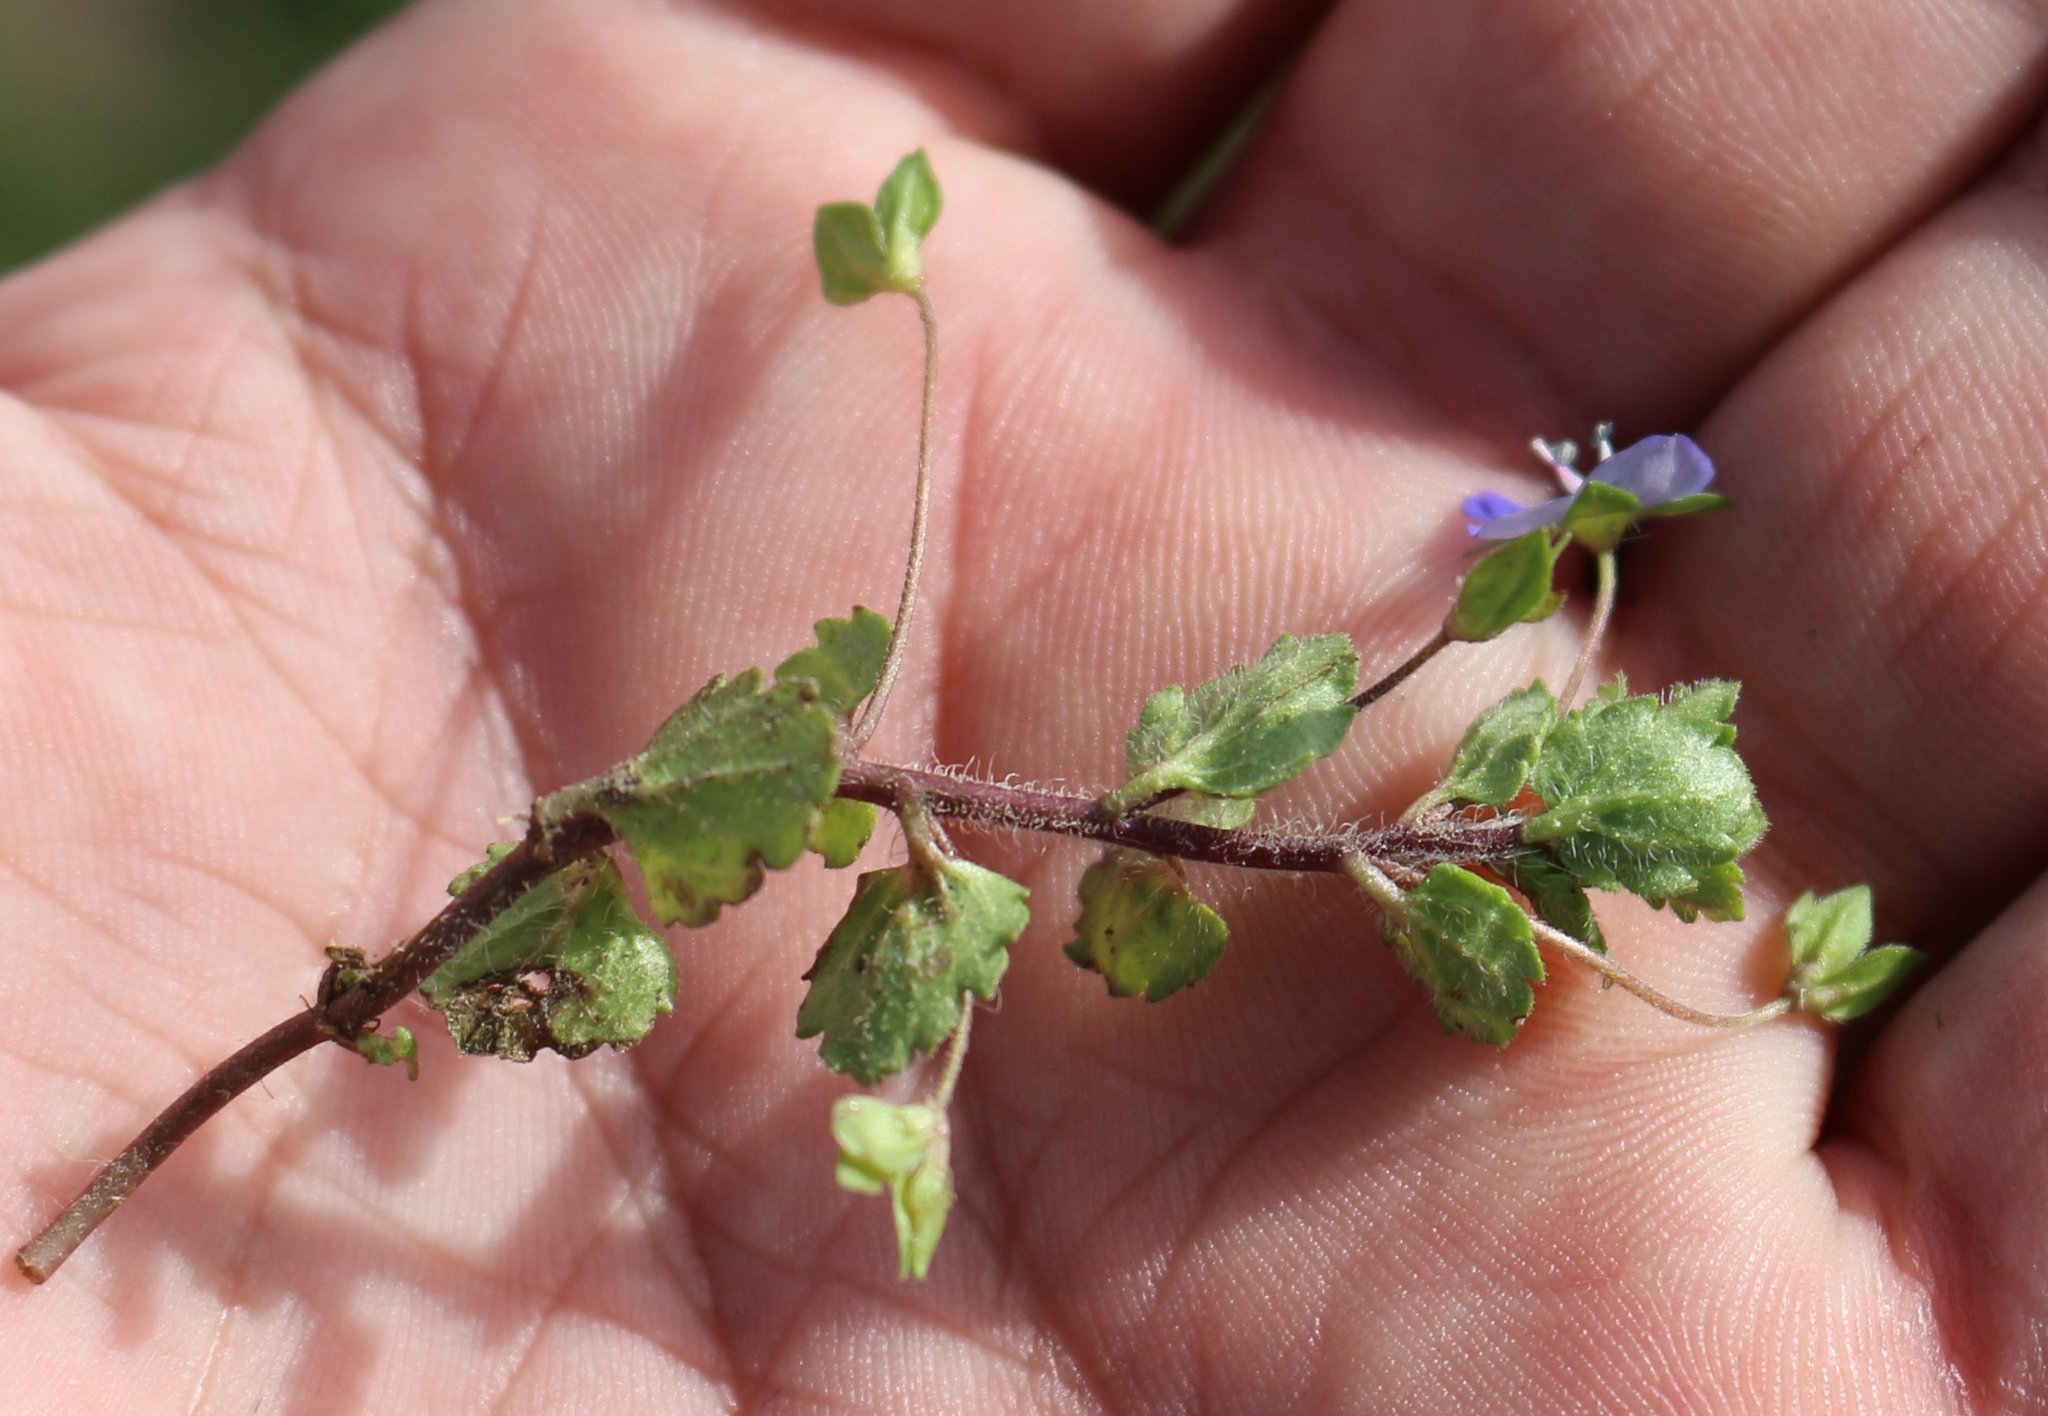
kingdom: Plantae
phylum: Tracheophyta
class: Magnoliopsida
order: Lamiales
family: Plantaginaceae
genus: Veronica
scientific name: Veronica persica
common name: Common field-speedwell
